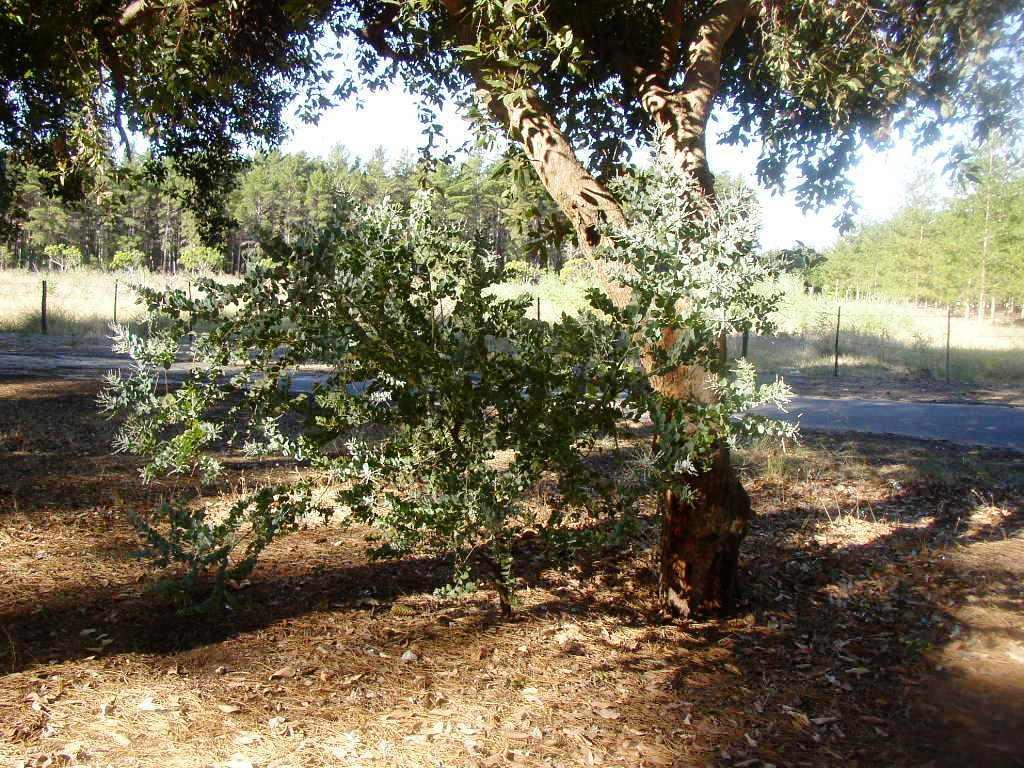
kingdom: Plantae
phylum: Tracheophyta
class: Magnoliopsida
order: Fabales
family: Fabaceae
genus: Acacia
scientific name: Acacia podalyriifolia
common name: Pearl wattle
